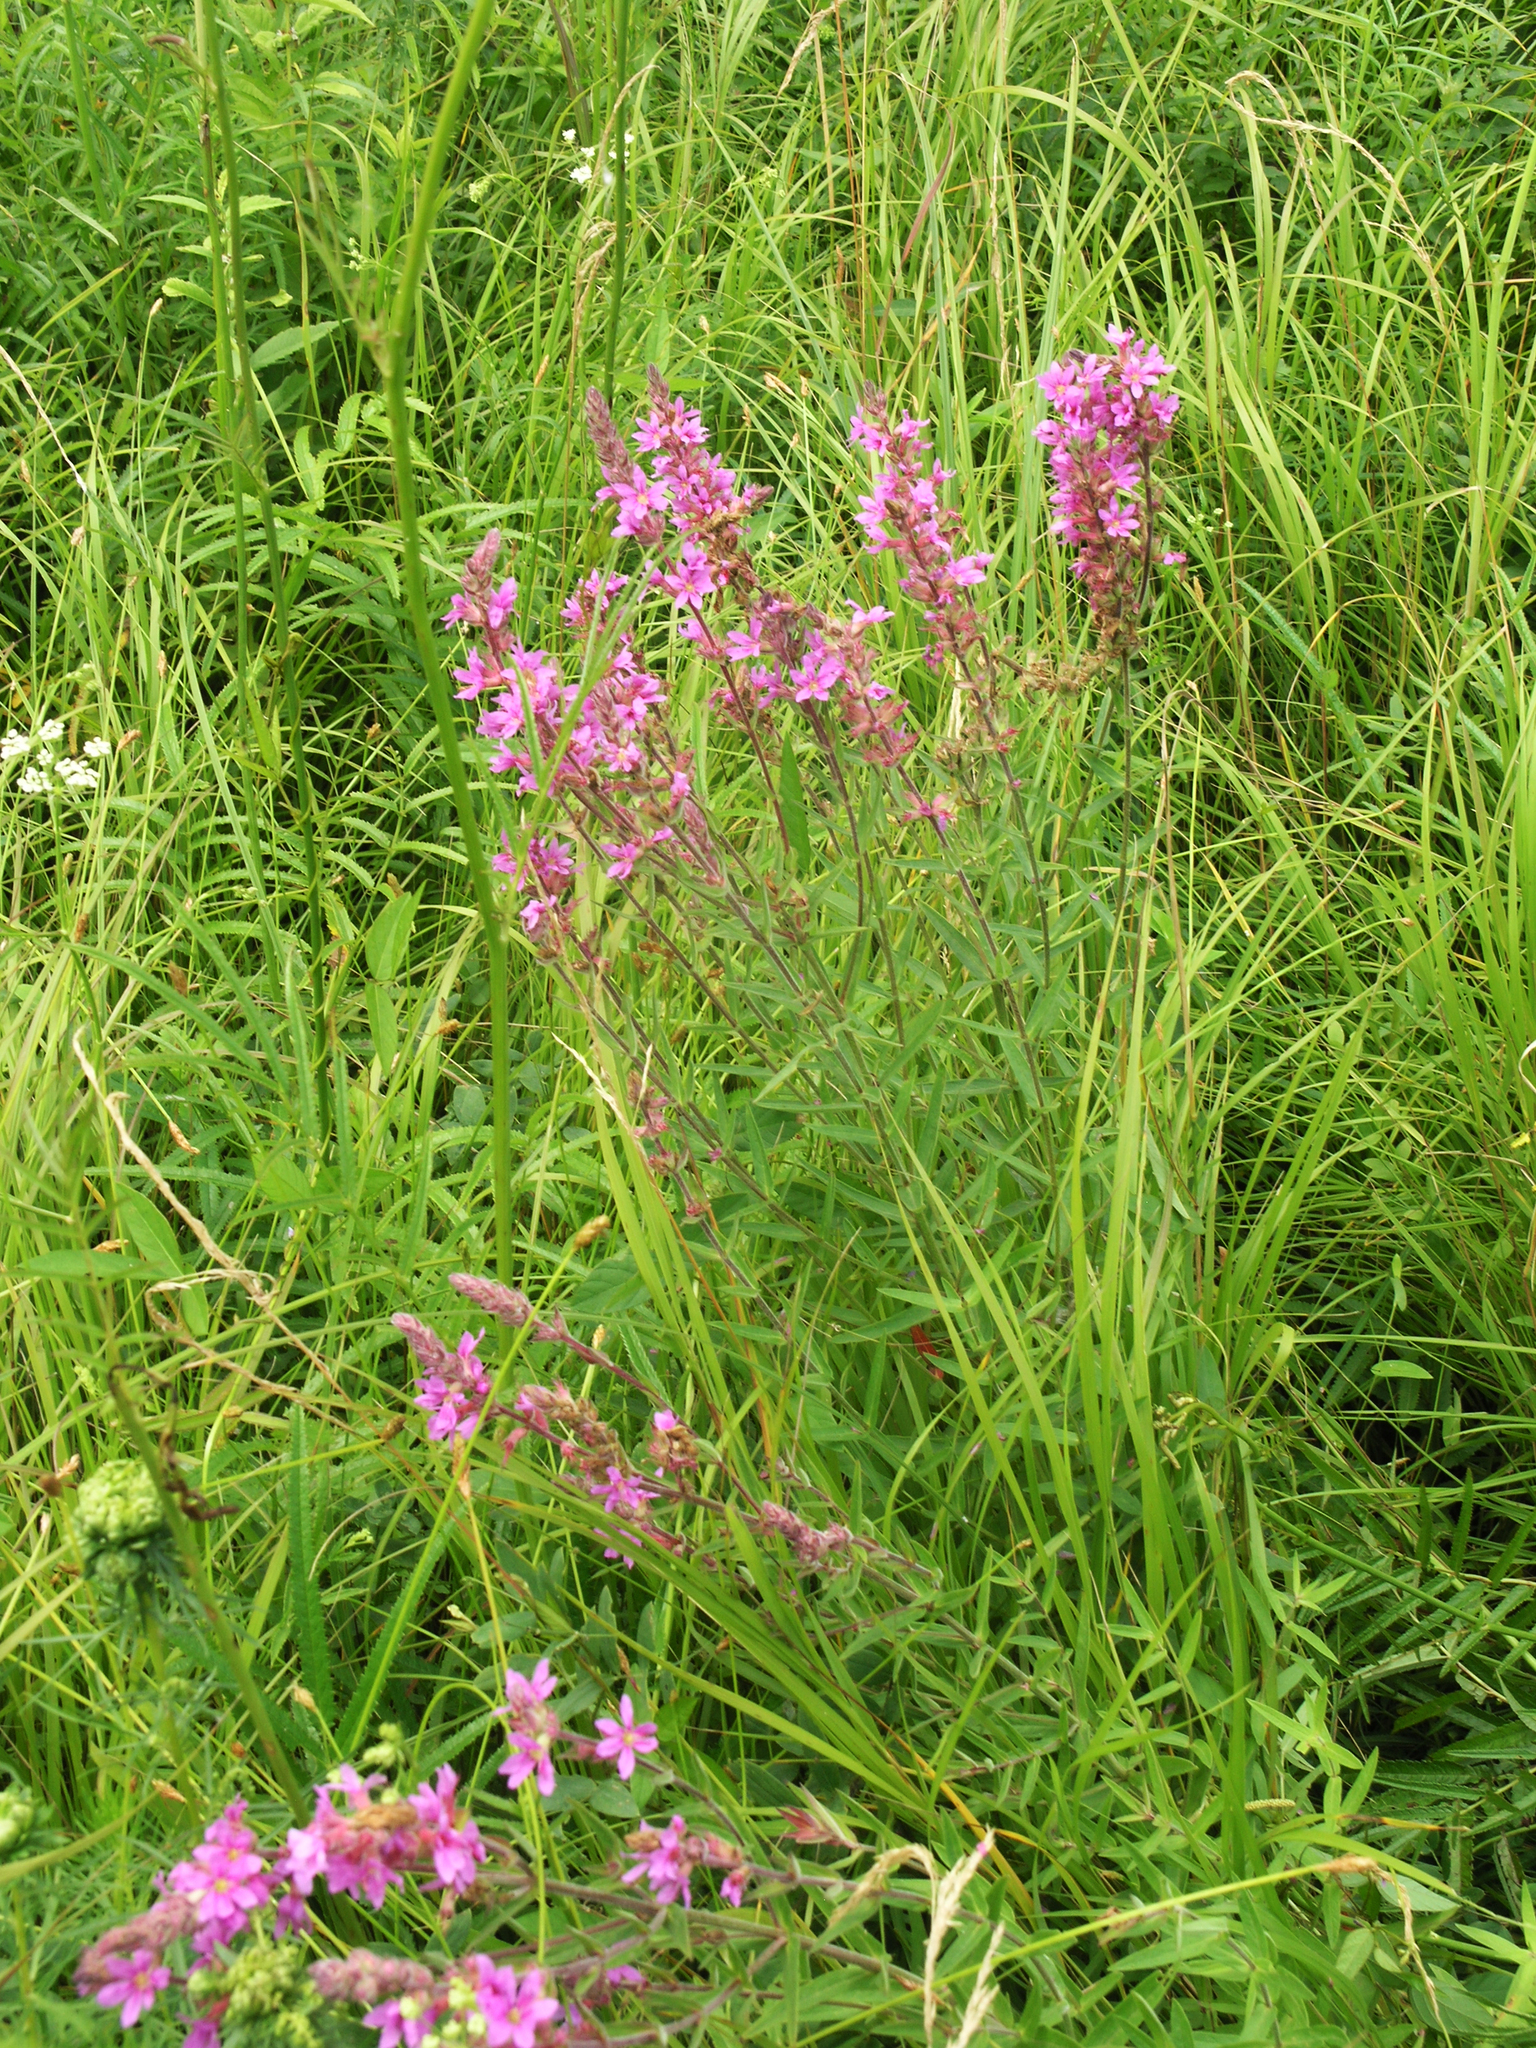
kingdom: Plantae
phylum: Tracheophyta
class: Magnoliopsida
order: Myrtales
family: Lythraceae
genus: Lythrum
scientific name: Lythrum salicaria
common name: Purple loosestrife
